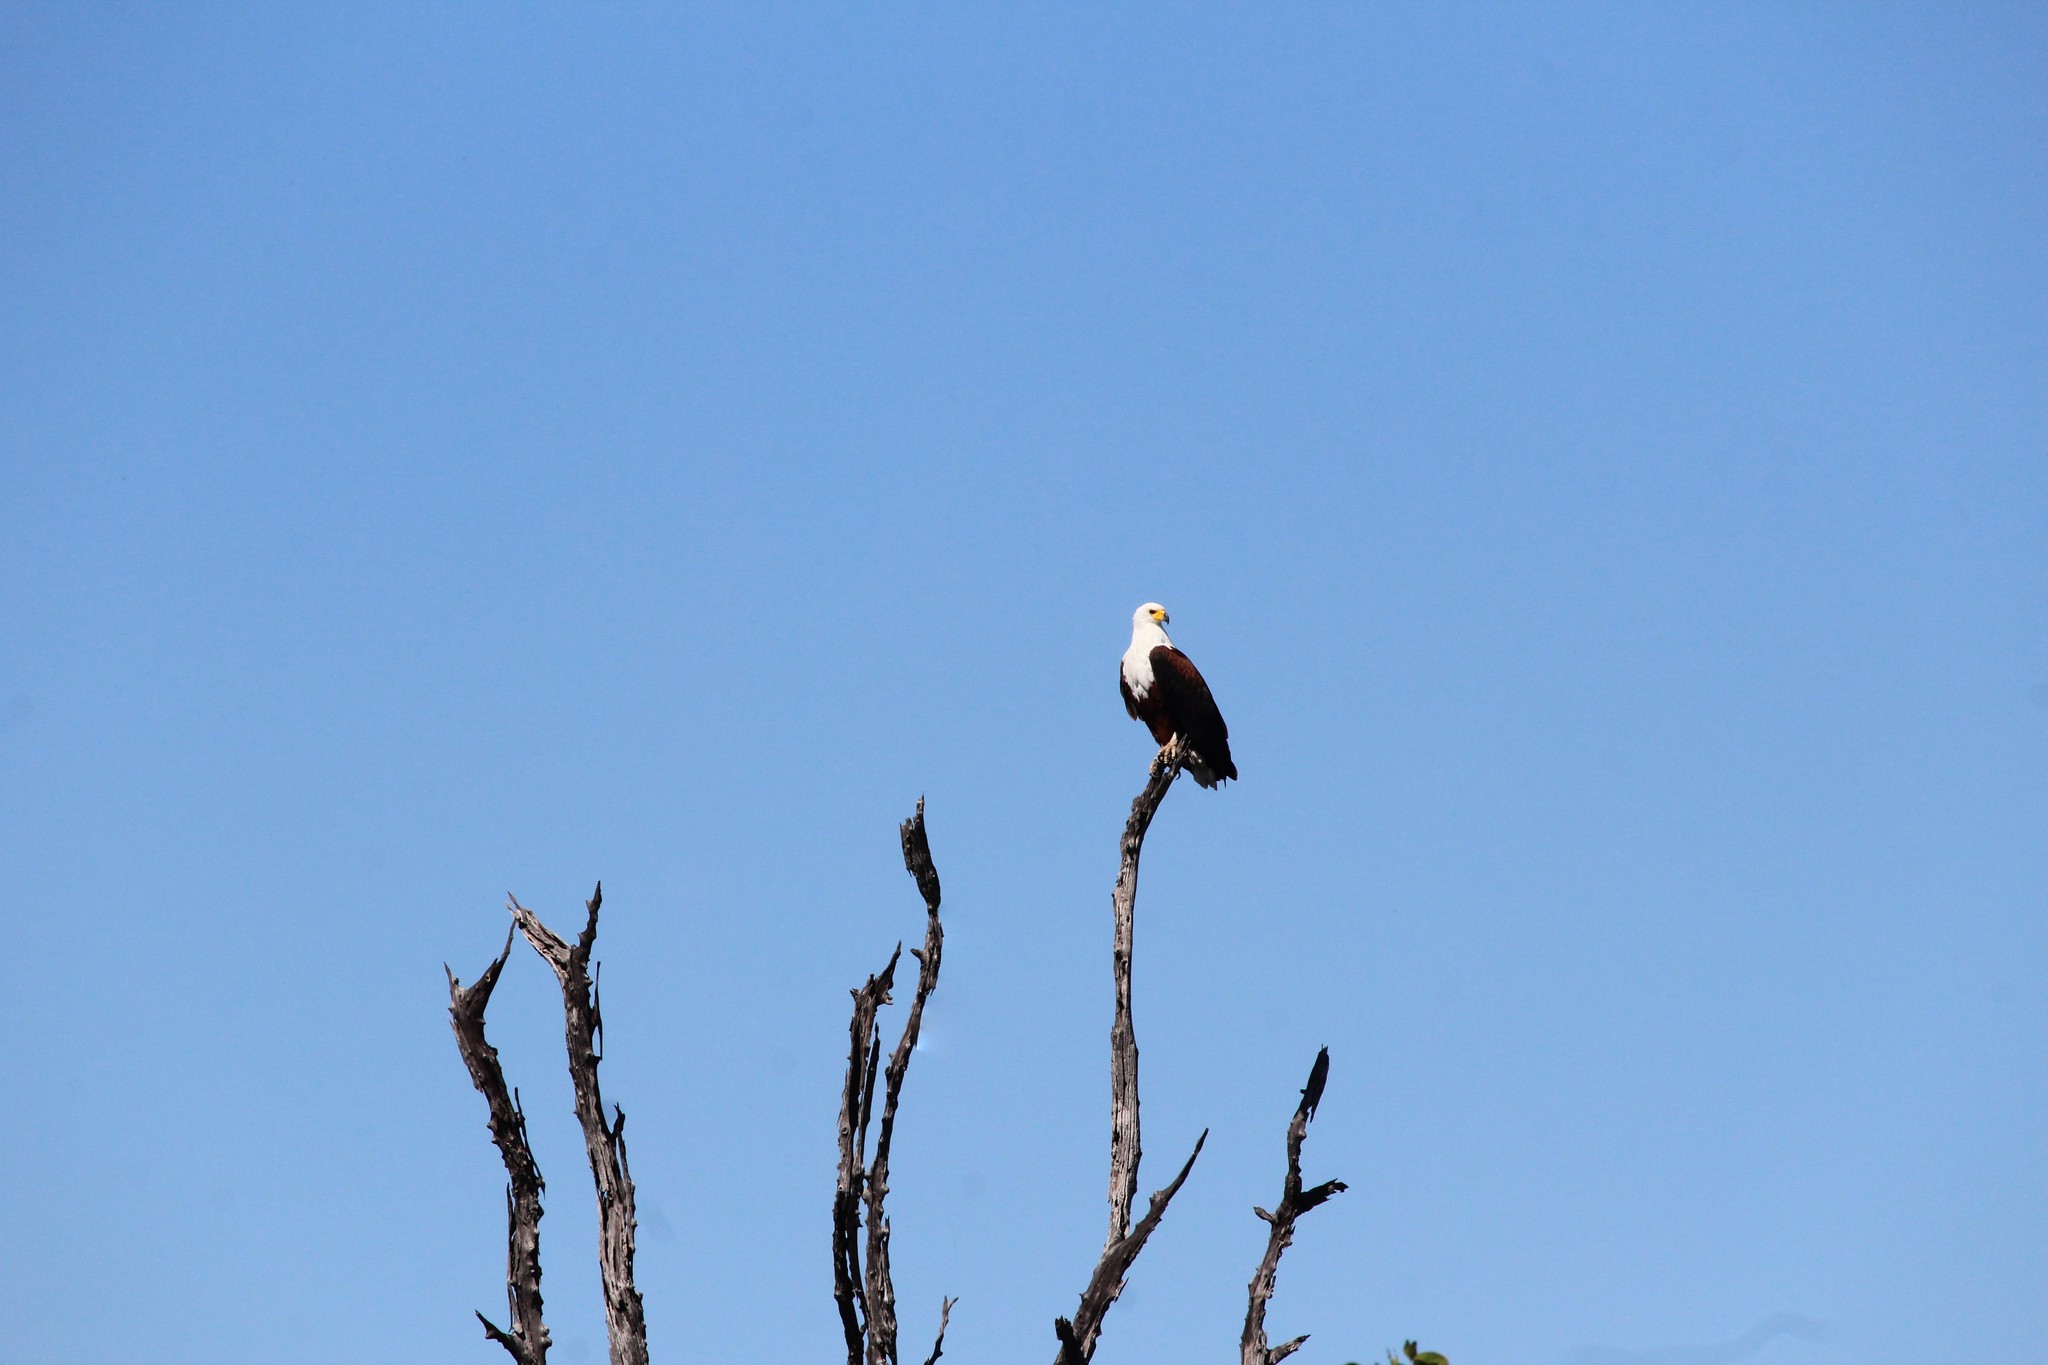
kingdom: Animalia
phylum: Chordata
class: Aves
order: Accipitriformes
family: Accipitridae
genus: Haliaeetus
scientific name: Haliaeetus vocifer
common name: African fish eagle
